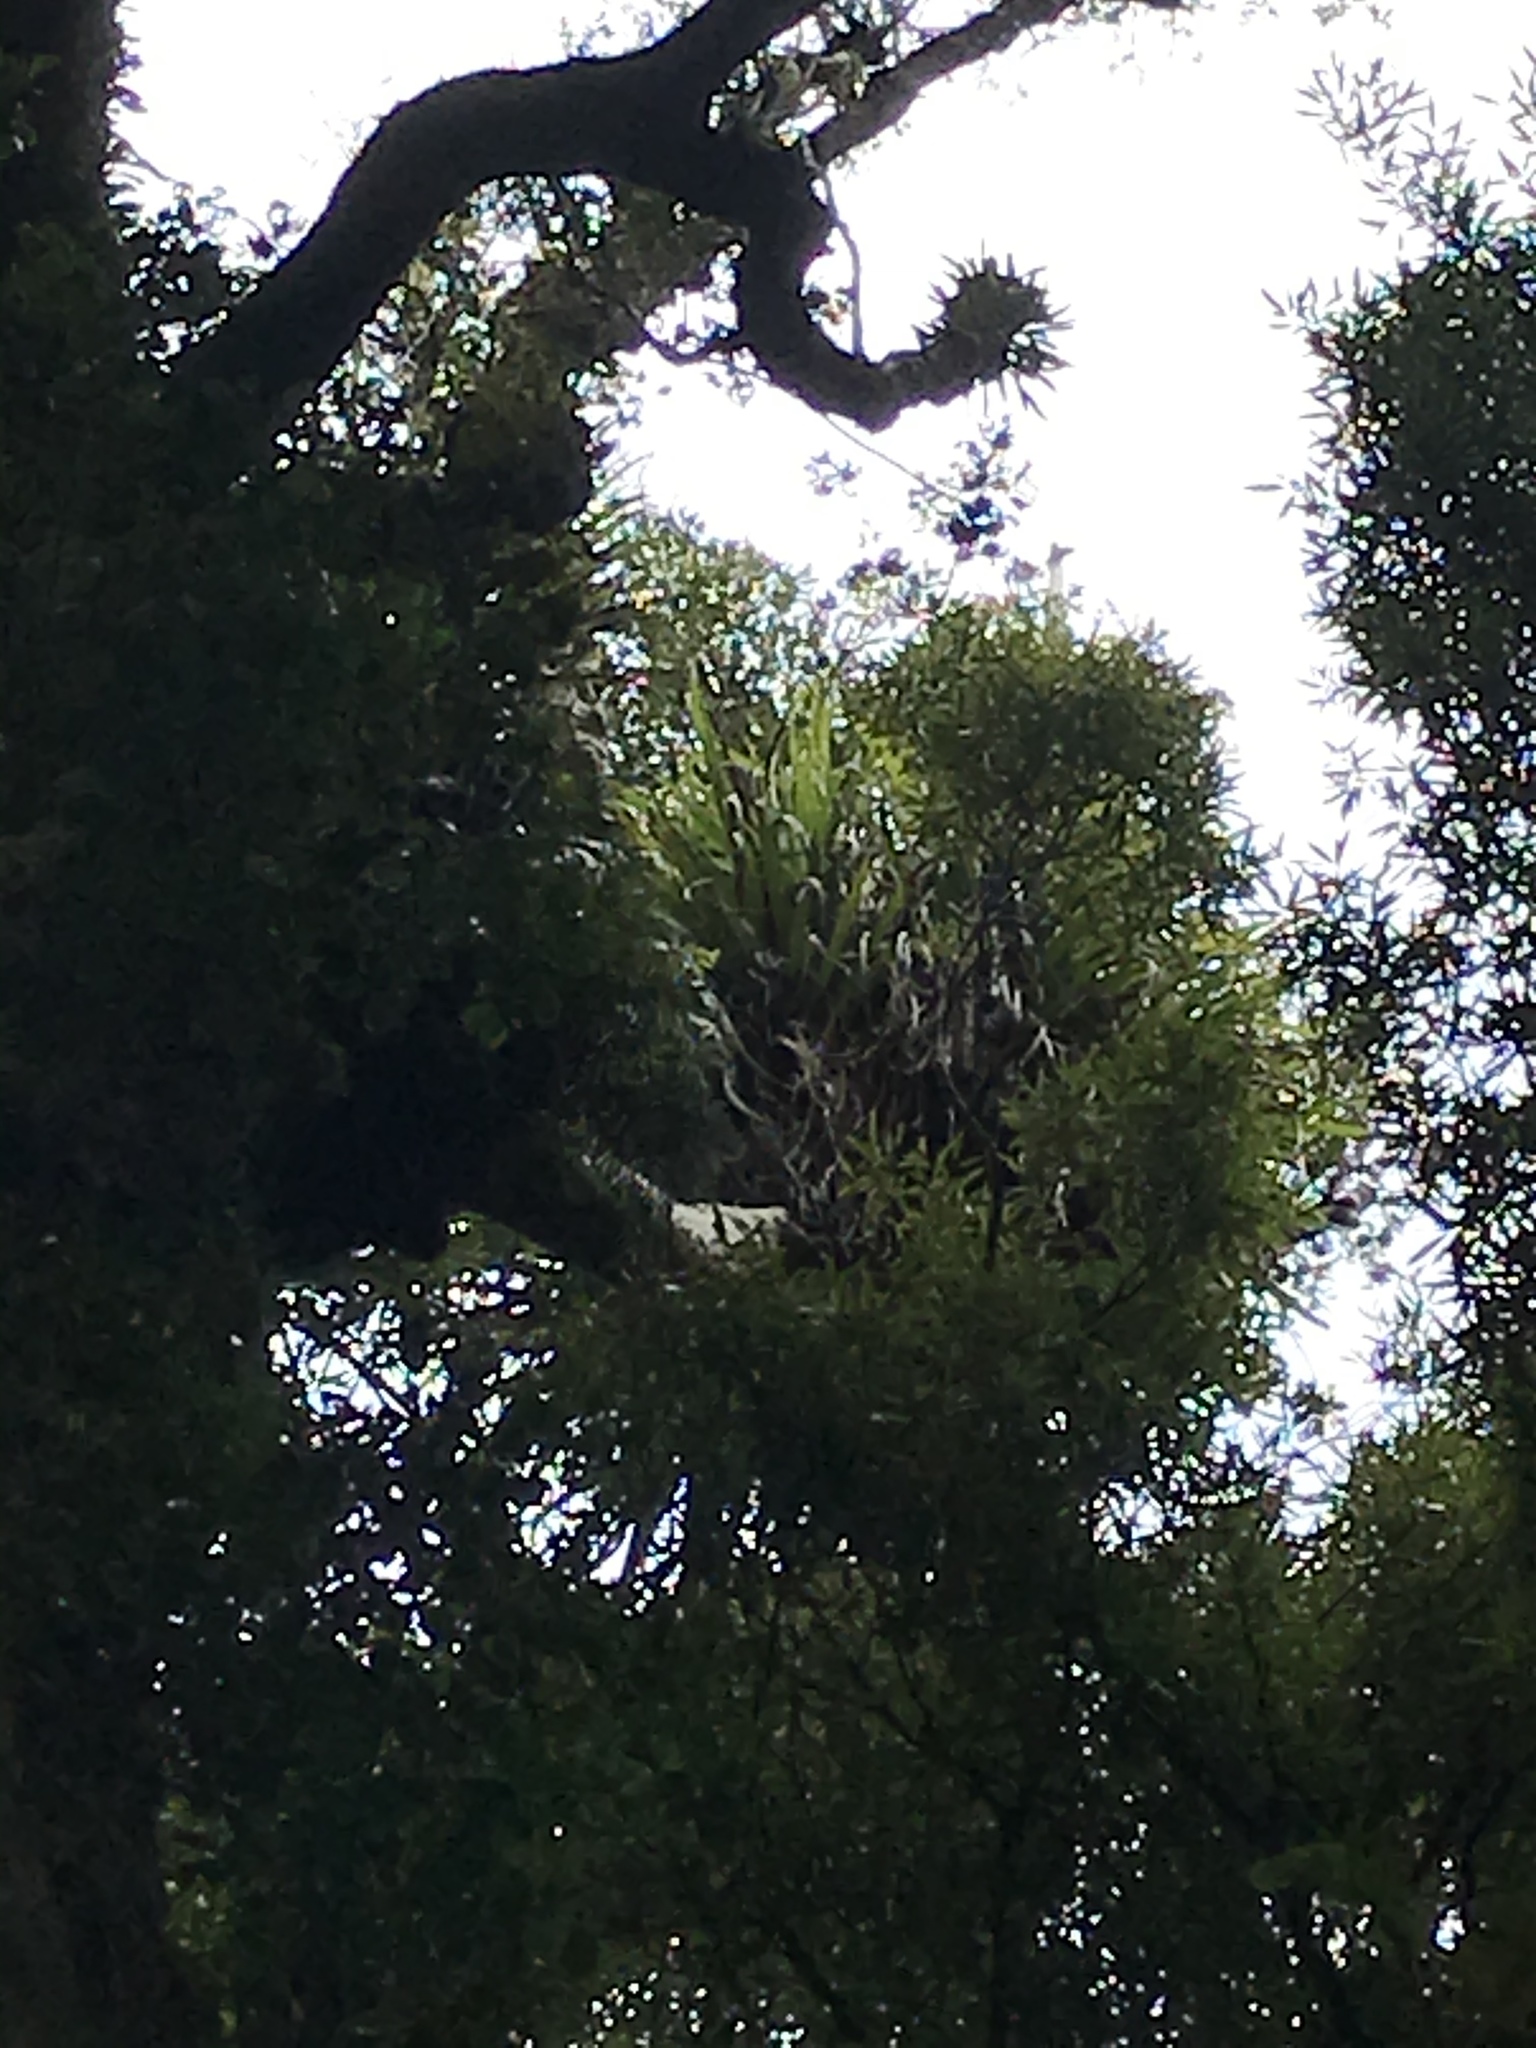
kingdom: Plantae
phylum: Tracheophyta
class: Liliopsida
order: Asparagales
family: Asteliaceae
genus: Astelia
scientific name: Astelia hastata
